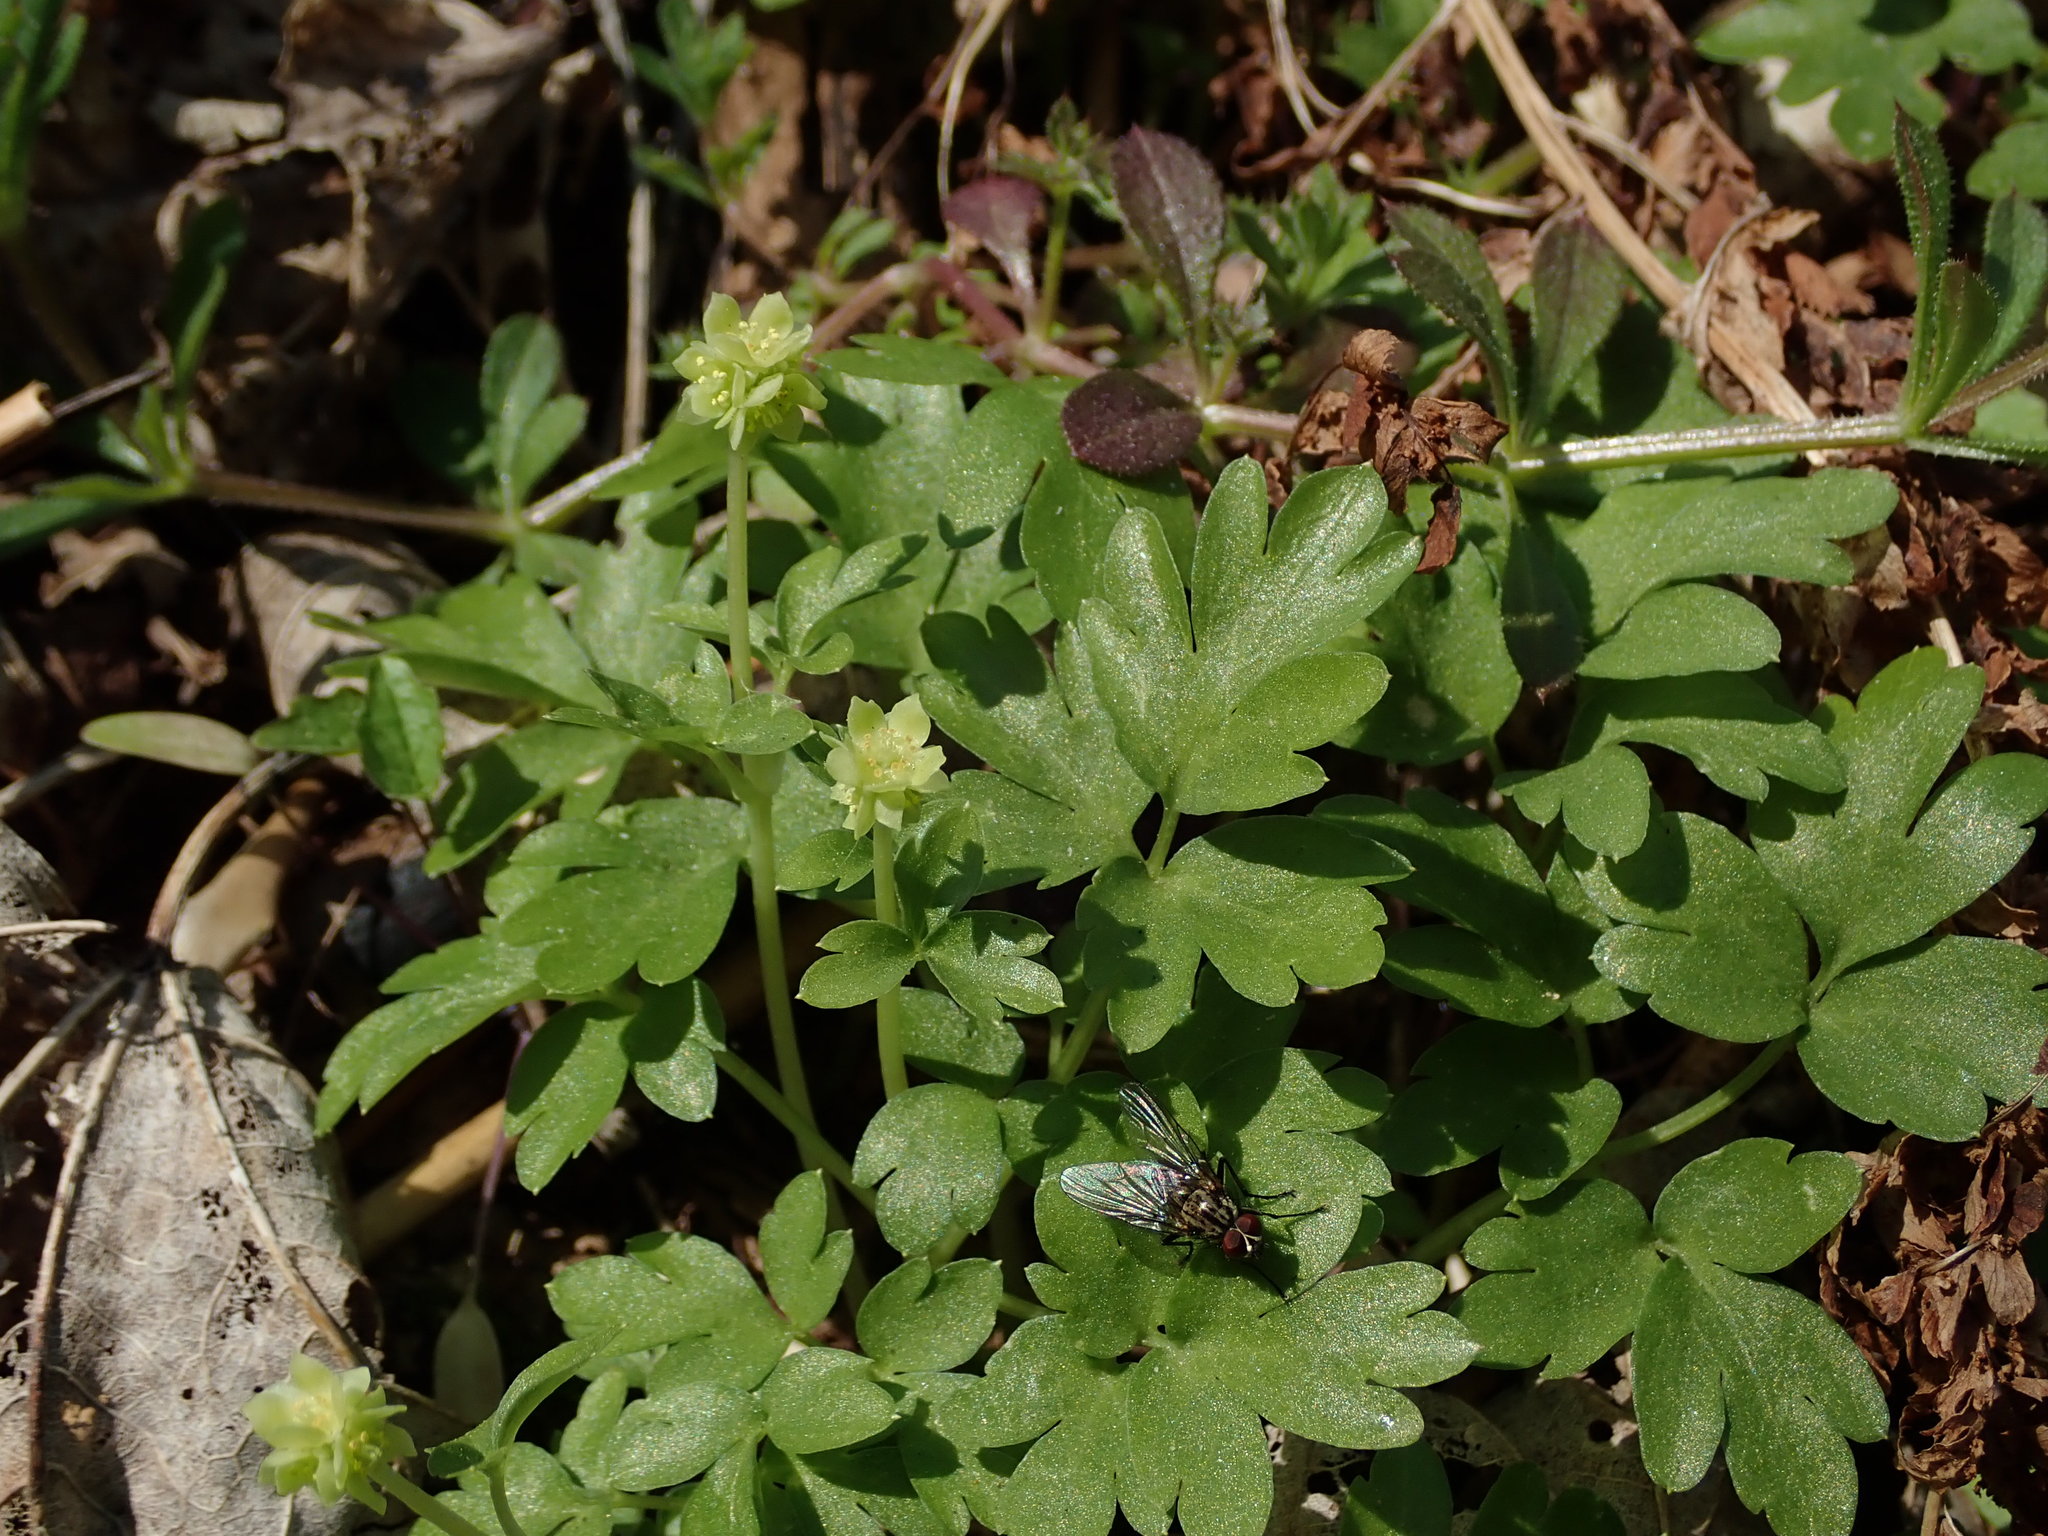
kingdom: Plantae
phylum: Tracheophyta
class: Magnoliopsida
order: Dipsacales
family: Viburnaceae
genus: Adoxa
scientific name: Adoxa moschatellina
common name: Moschatel
